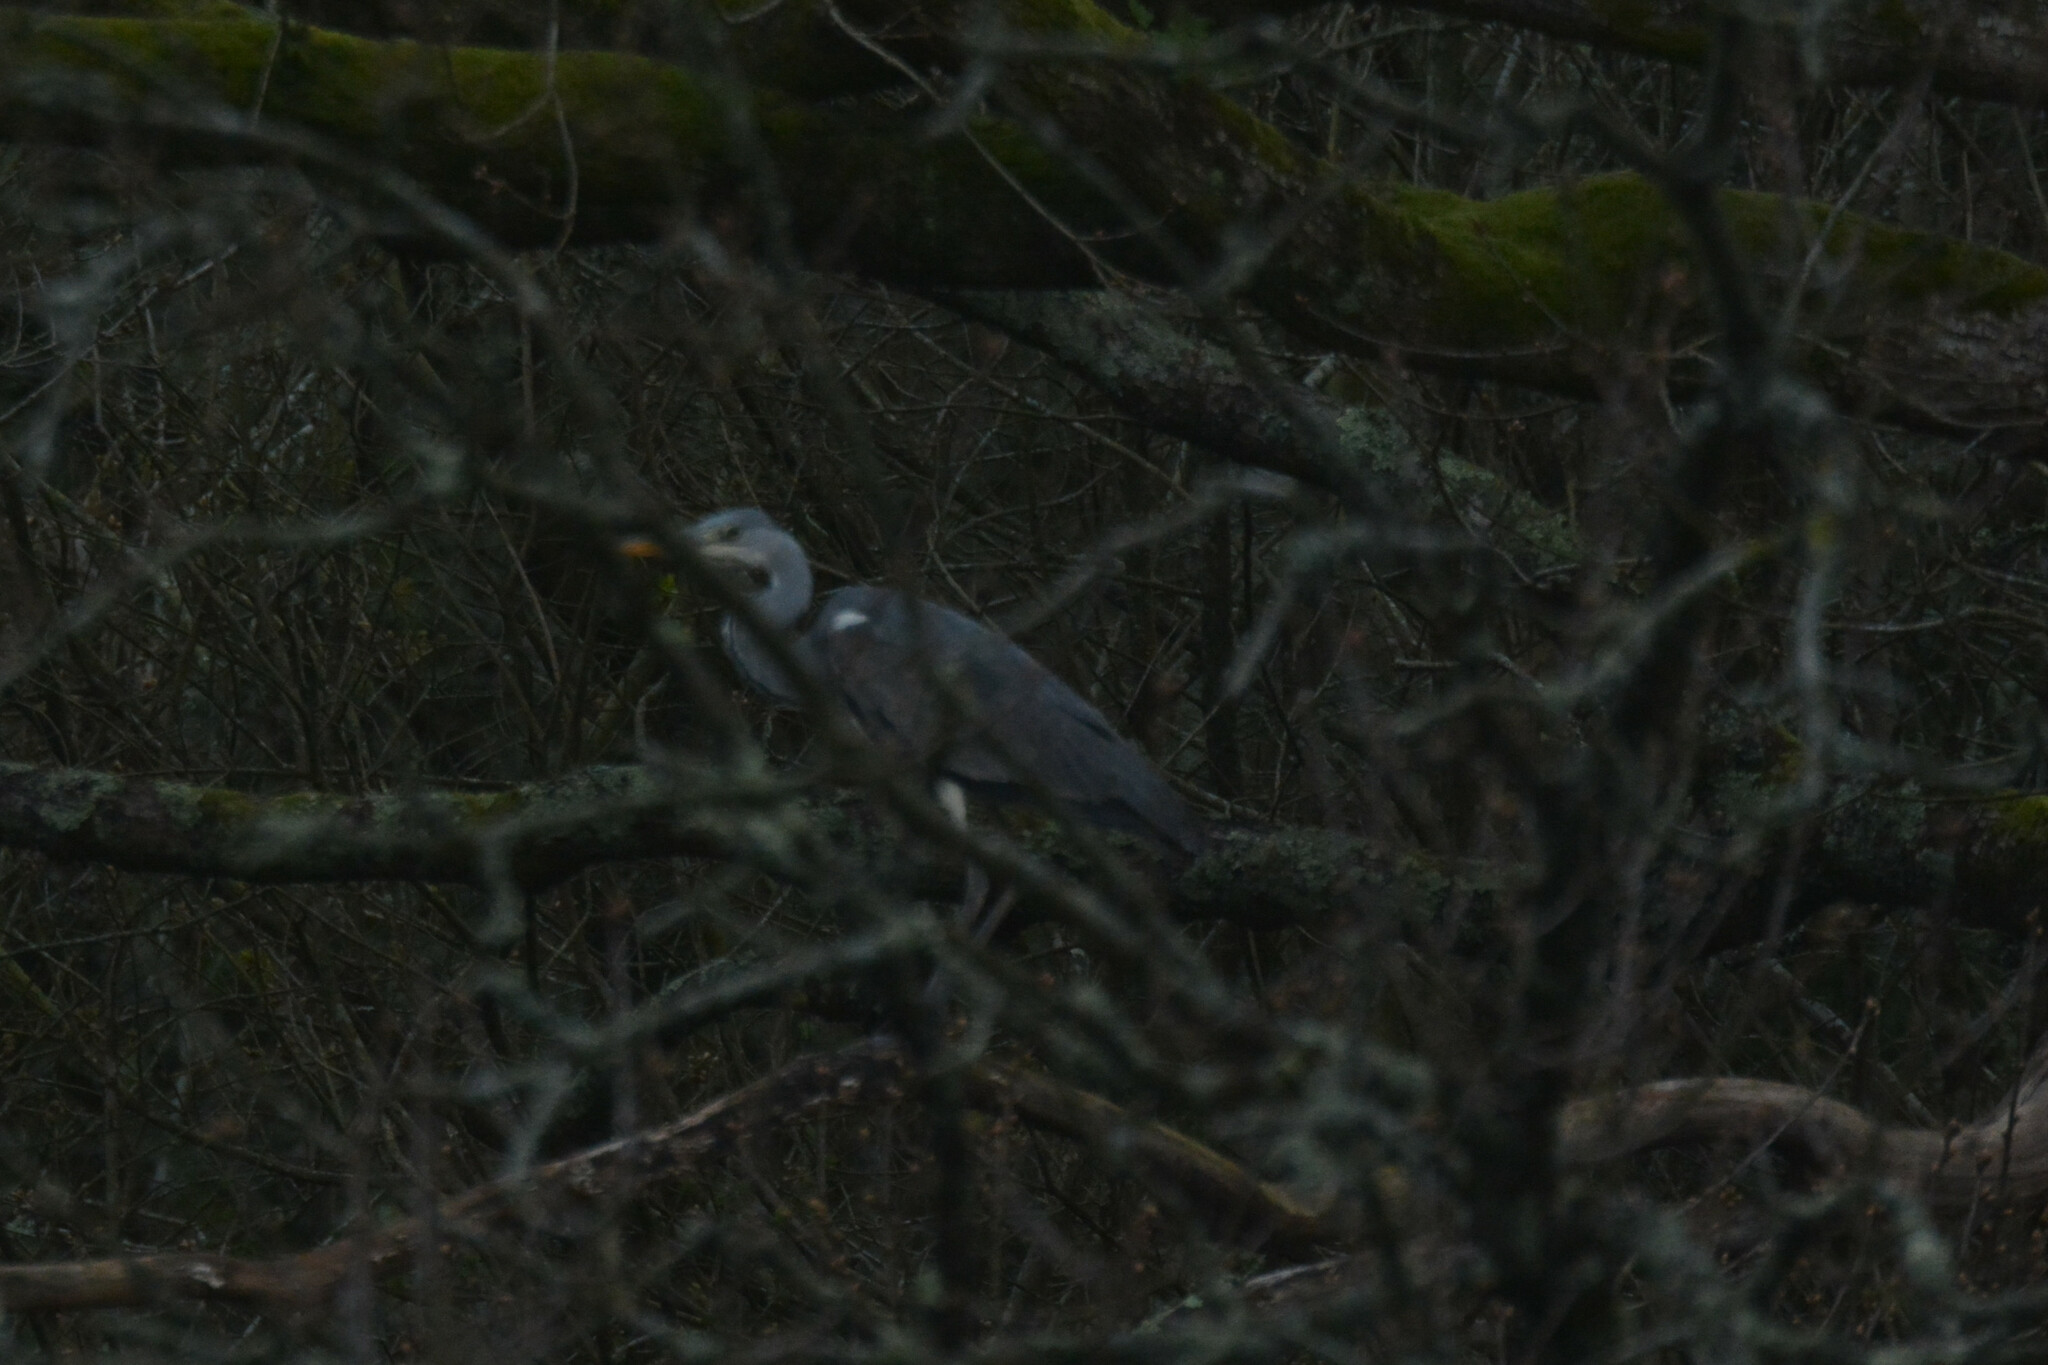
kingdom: Animalia
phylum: Chordata
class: Aves
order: Pelecaniformes
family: Ardeidae
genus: Ardea
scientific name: Ardea cinerea
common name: Grey heron
